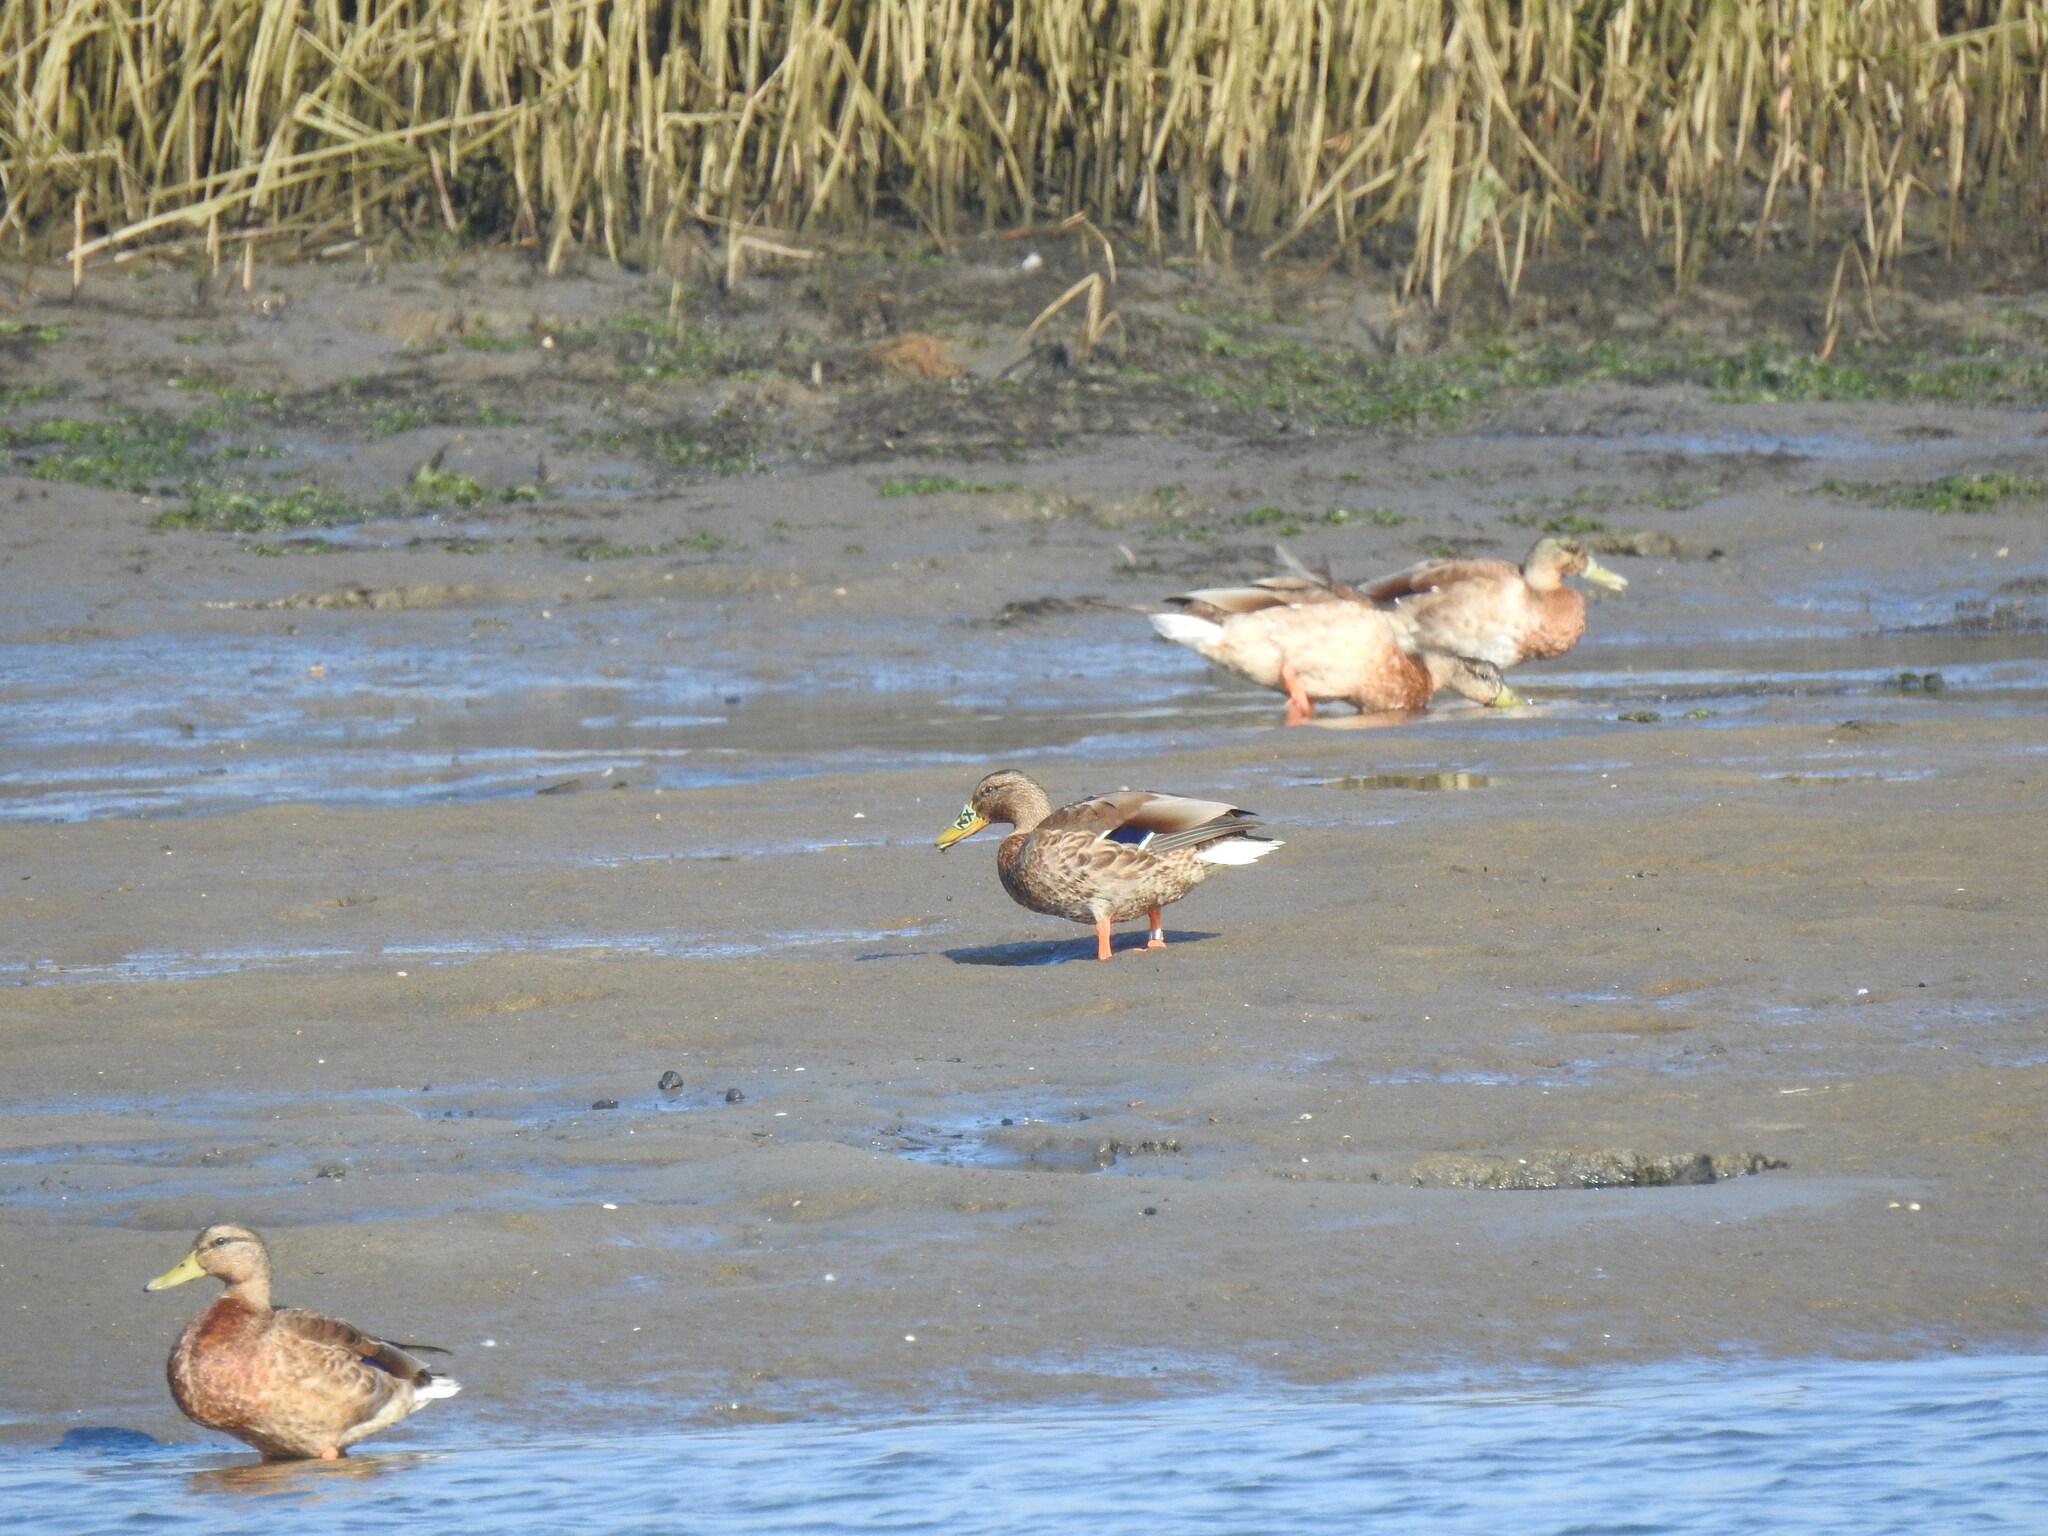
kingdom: Animalia
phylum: Chordata
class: Aves
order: Anseriformes
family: Anatidae
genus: Anas
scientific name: Anas platyrhynchos
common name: Mallard
